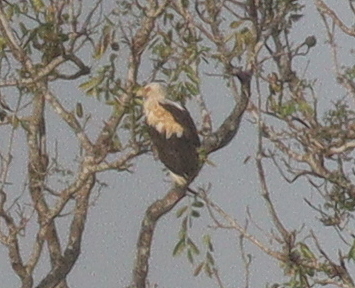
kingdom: Animalia
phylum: Chordata
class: Aves
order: Accipitriformes
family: Accipitridae
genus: Gypohierax
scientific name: Gypohierax angolensis
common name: Palm-nut vulture
